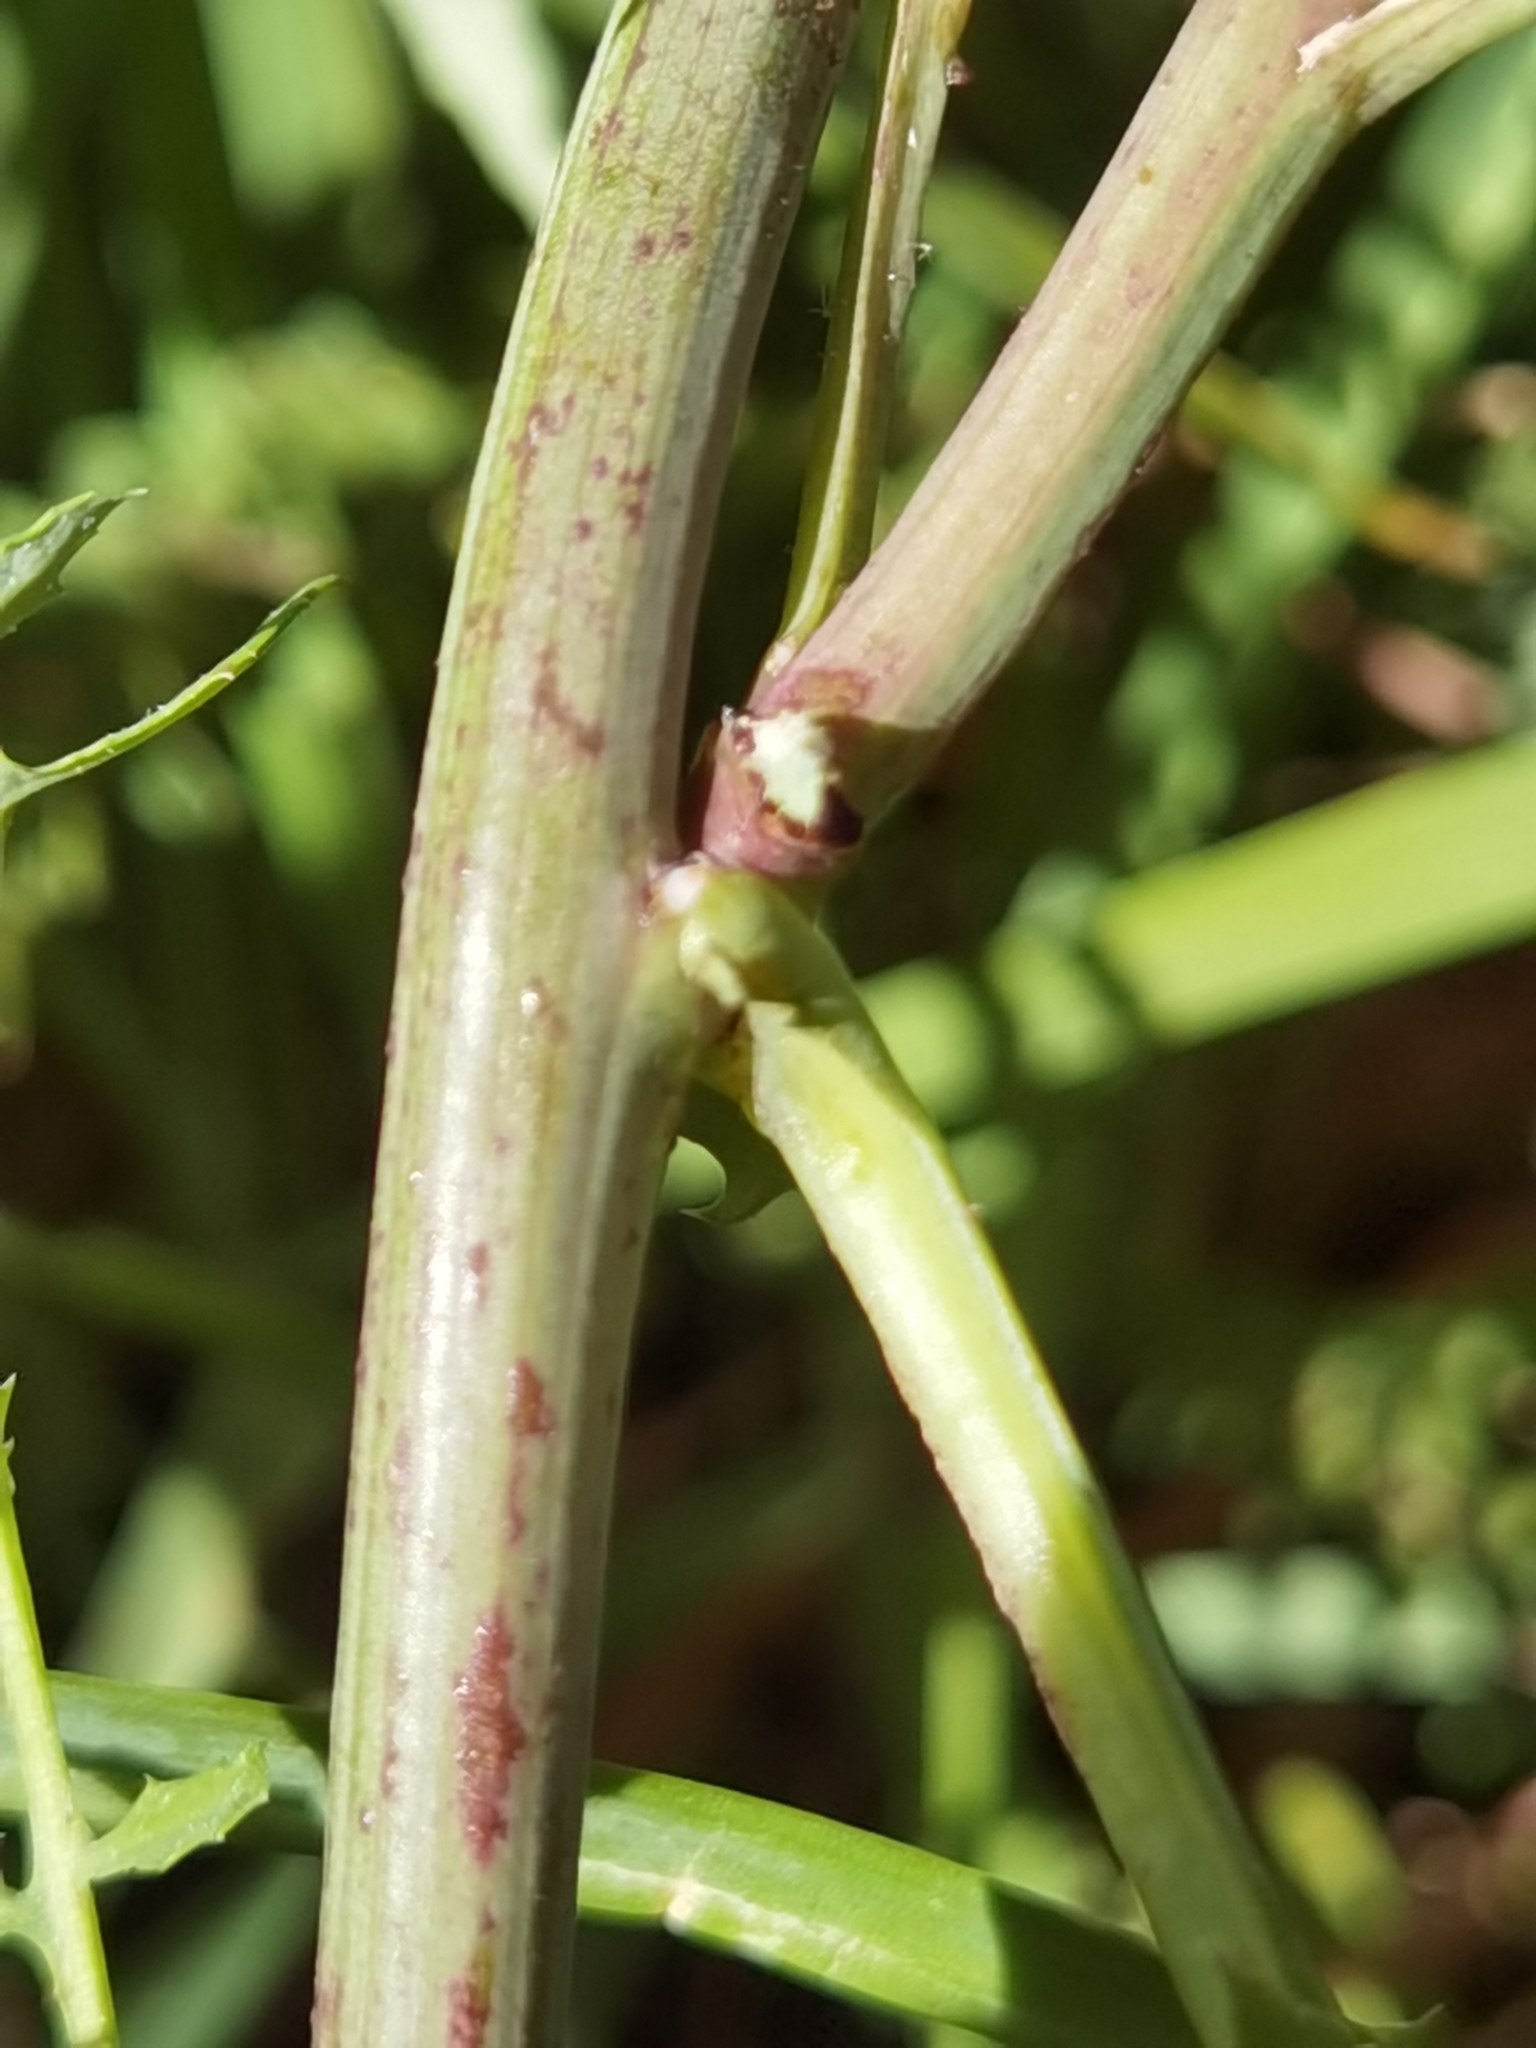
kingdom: Plantae
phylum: Tracheophyta
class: Magnoliopsida
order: Asterales
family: Asteraceae
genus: Sonchus
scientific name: Sonchus tenerrimus
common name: Clammy sowthistle
